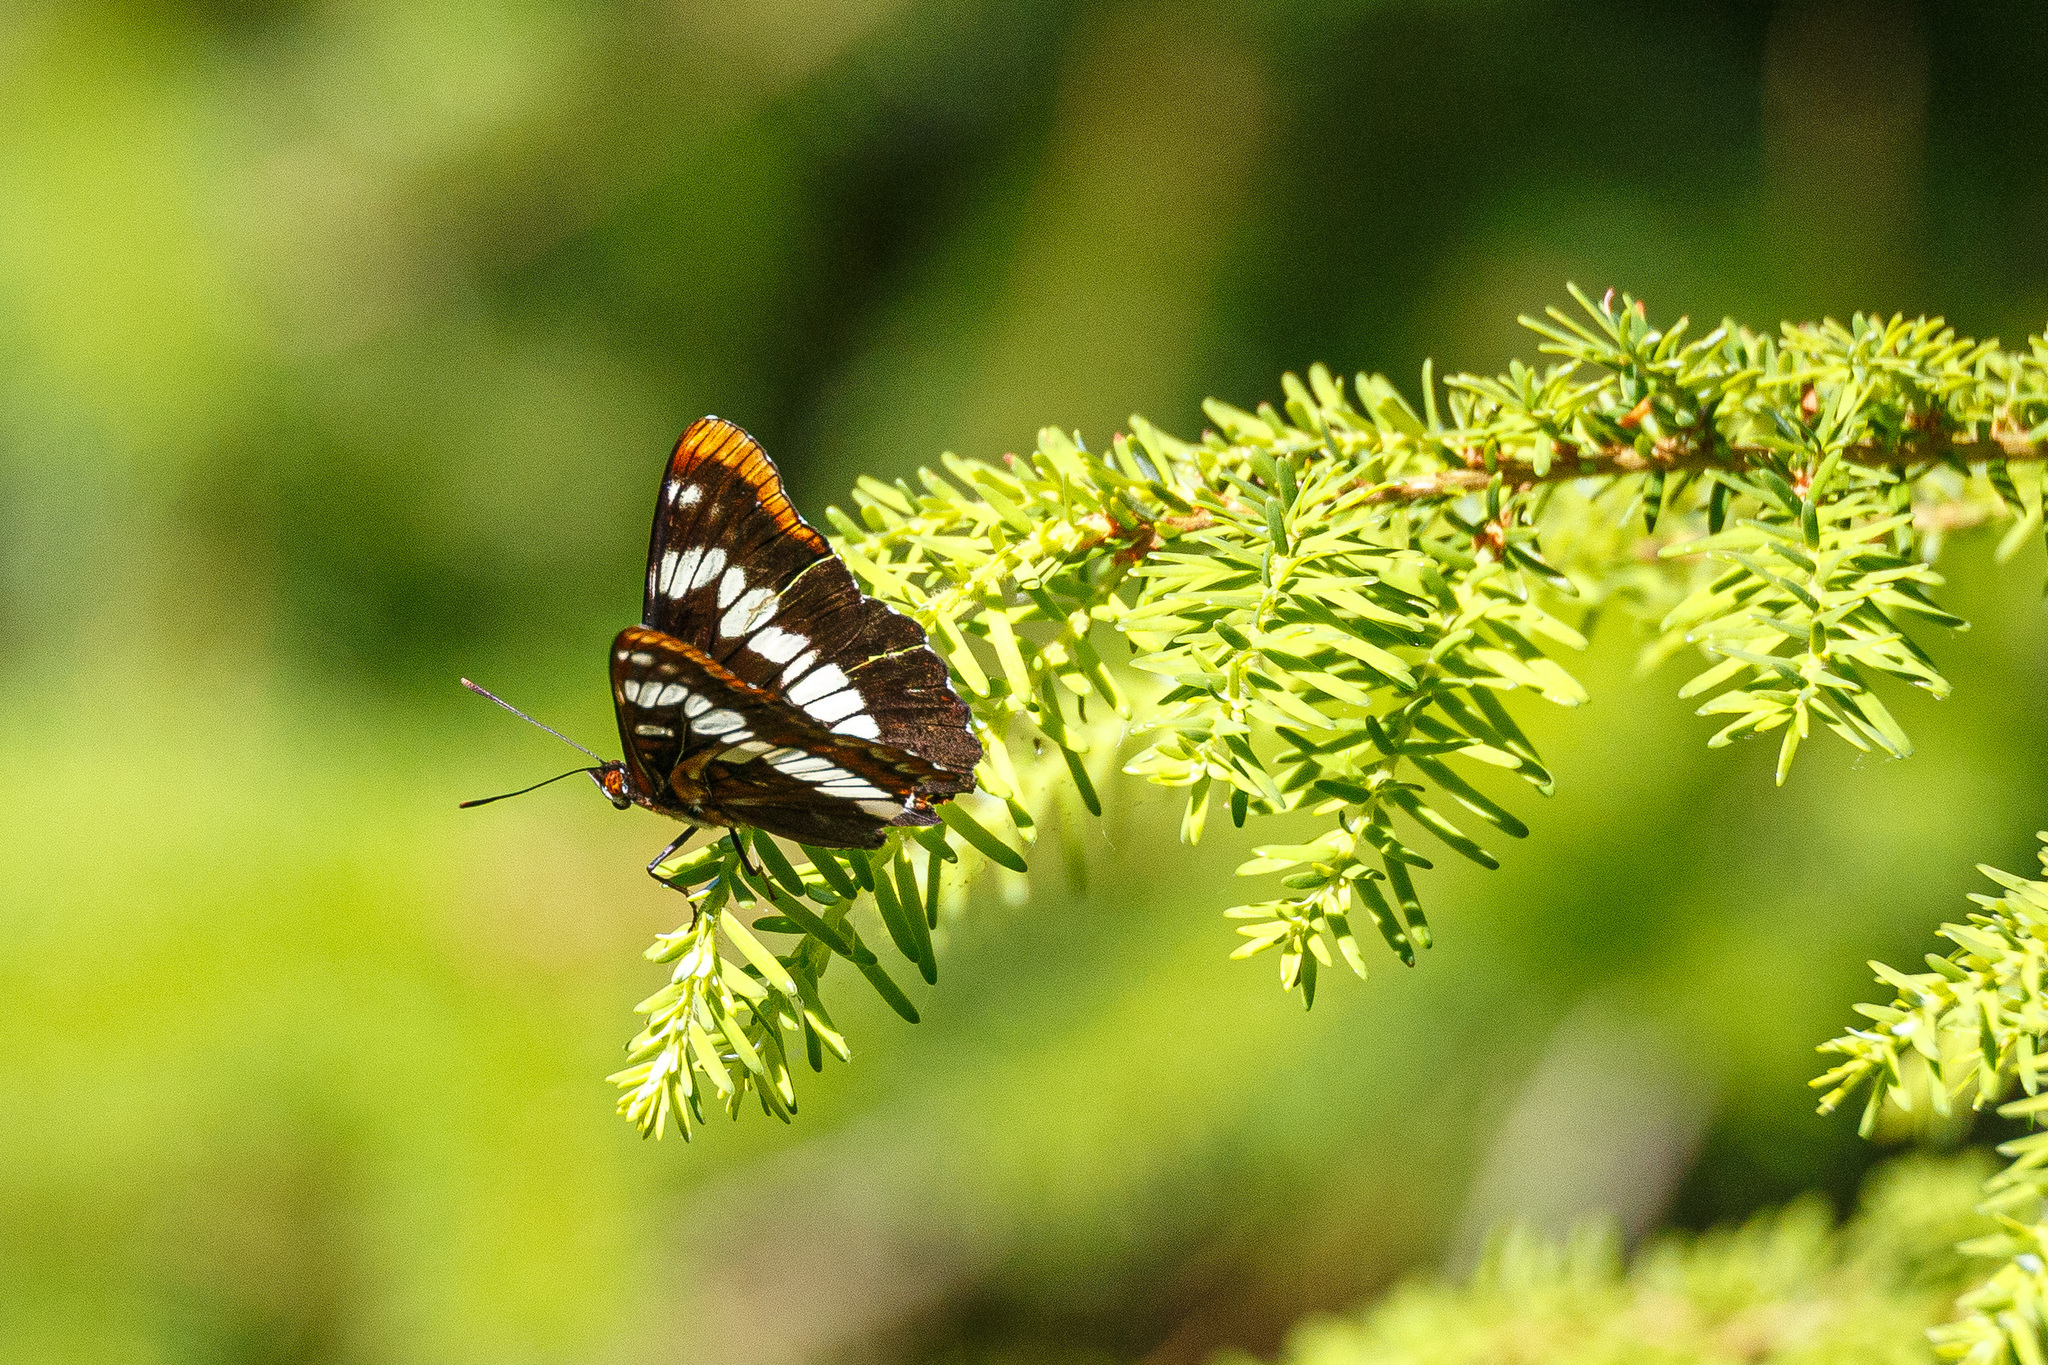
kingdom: Animalia
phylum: Arthropoda
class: Insecta
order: Lepidoptera
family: Nymphalidae
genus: Limenitis
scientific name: Limenitis lorquini
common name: Lorquin's admiral
